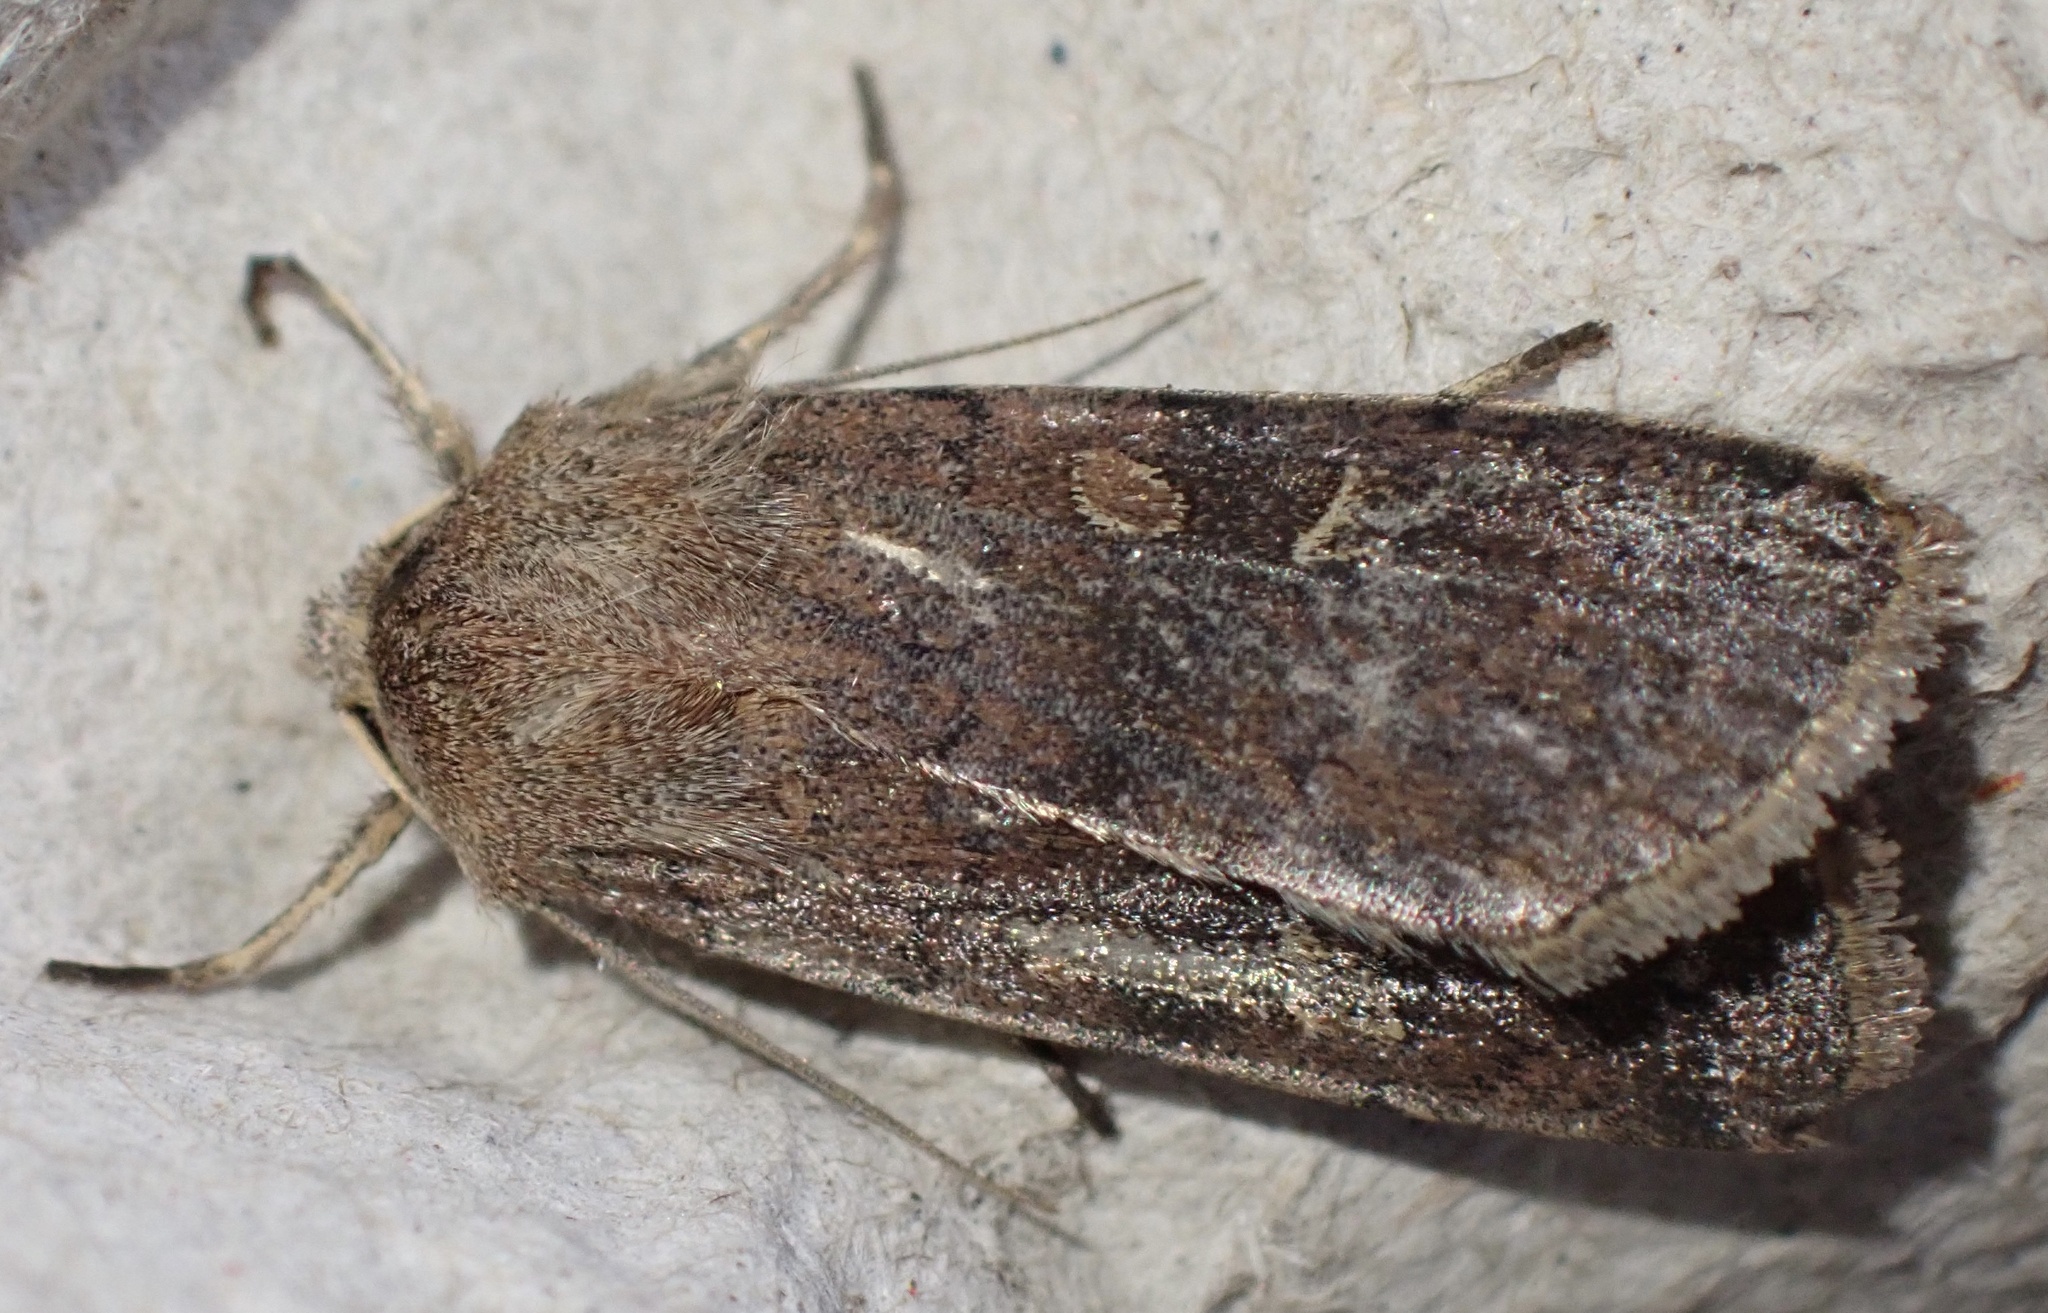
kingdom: Animalia
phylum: Arthropoda
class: Insecta
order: Lepidoptera
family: Noctuidae
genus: Xestia
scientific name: Xestia xanthographa
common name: Square-spot rustic
